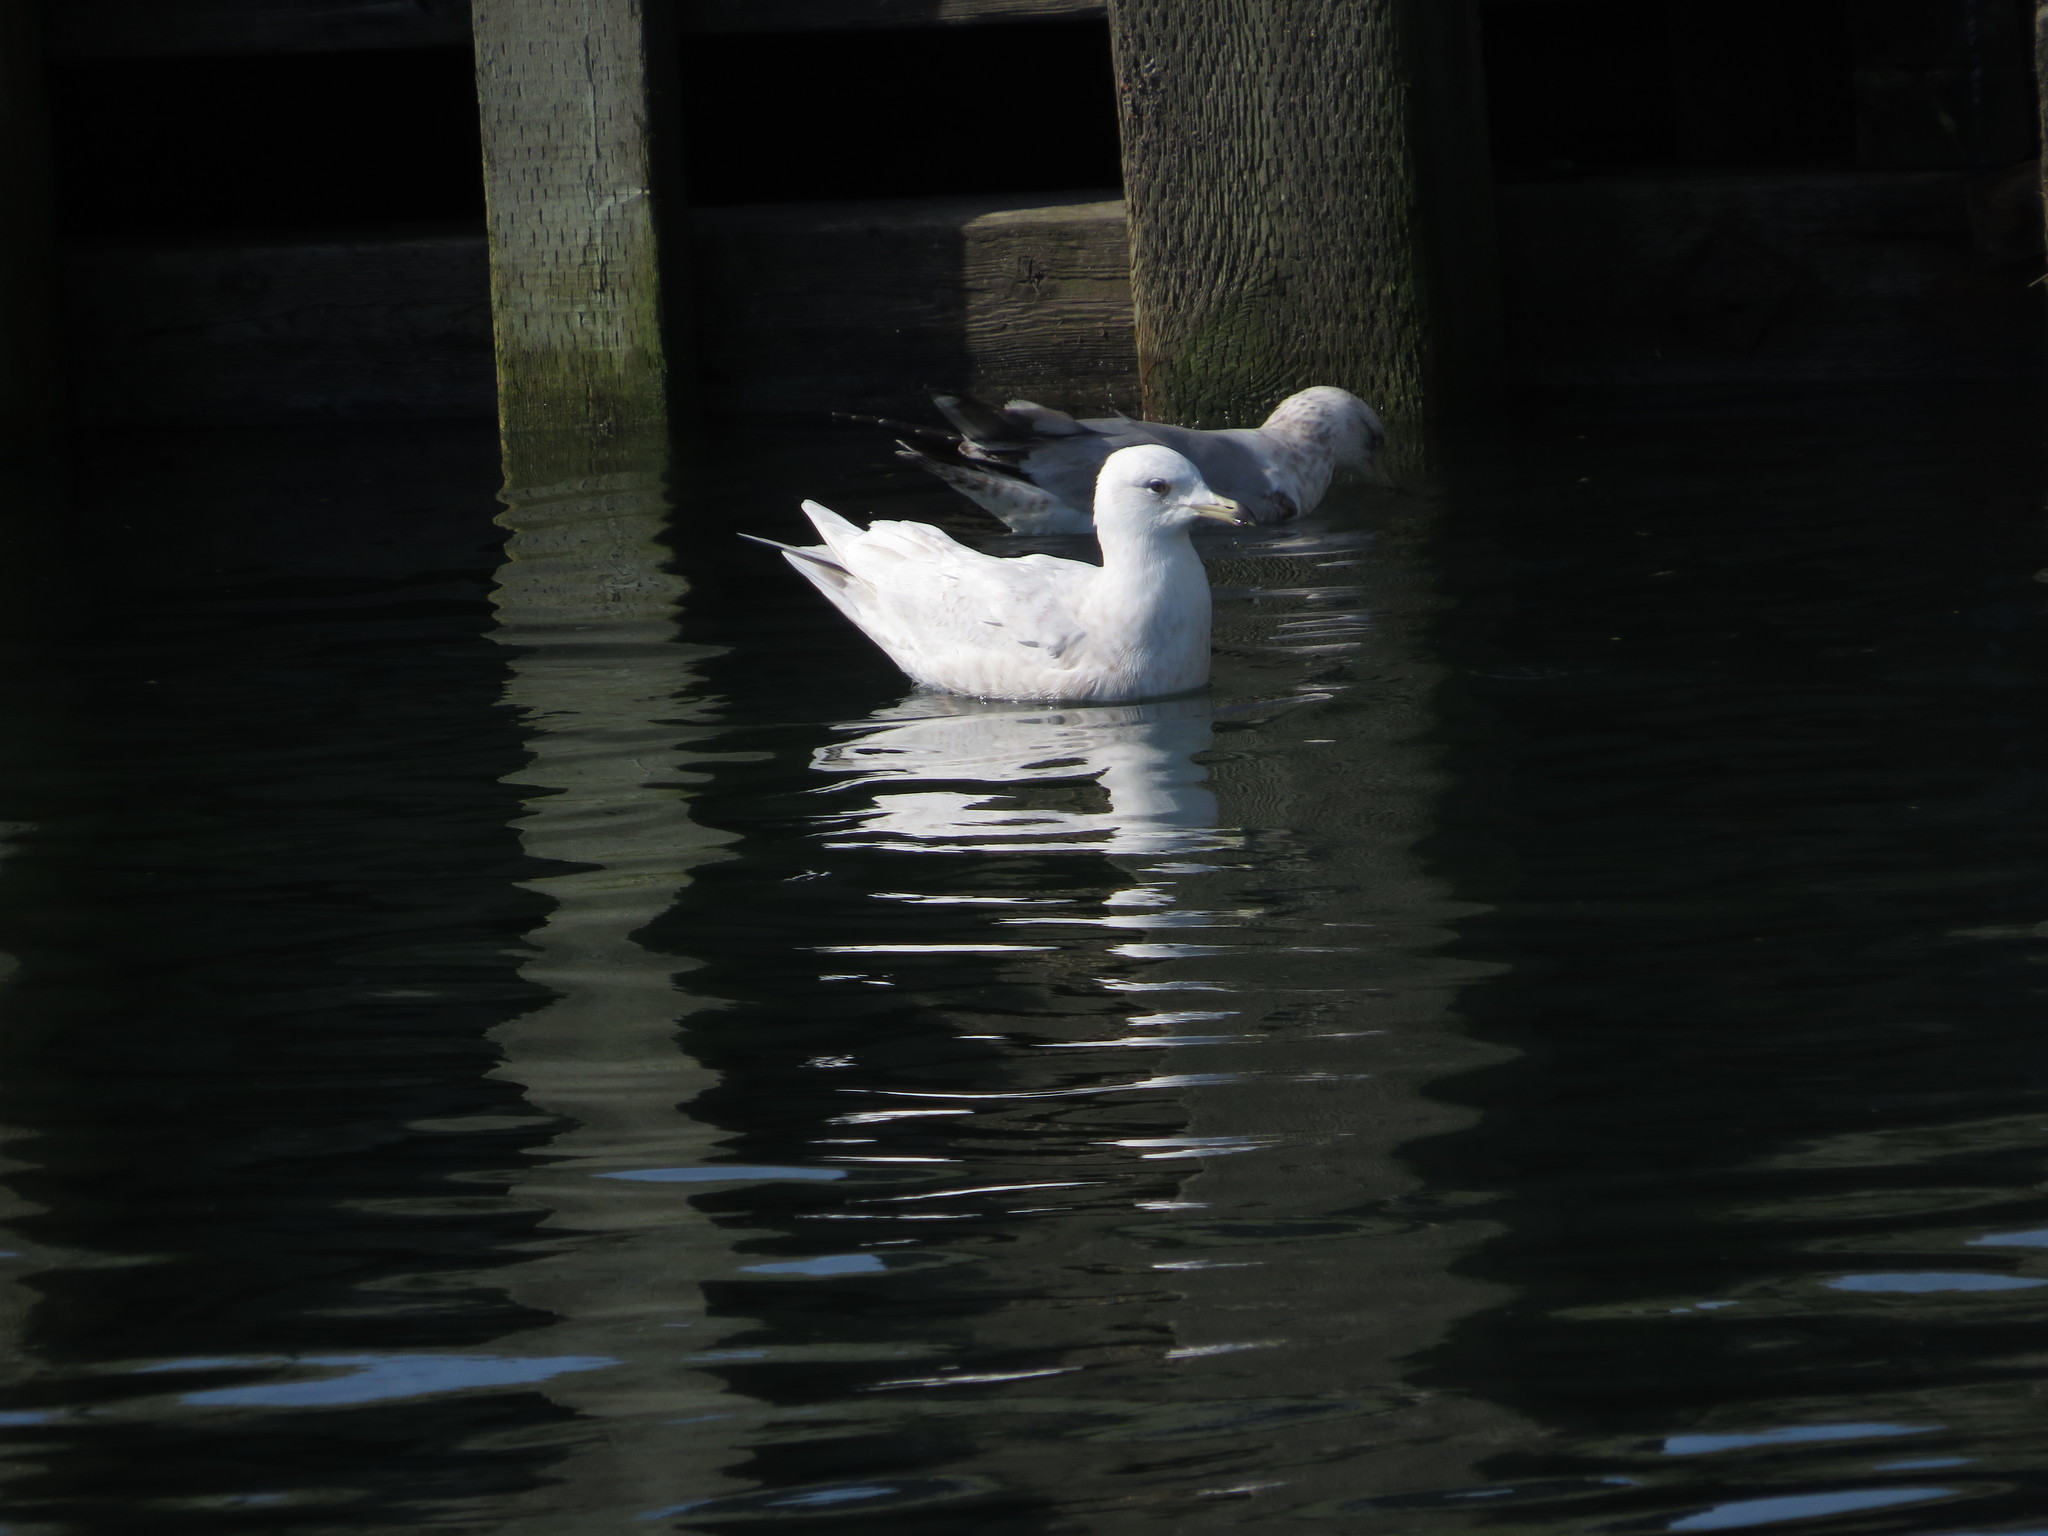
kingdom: Animalia
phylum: Chordata
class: Aves
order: Charadriiformes
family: Laridae
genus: Larus
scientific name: Larus glaucoides
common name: Iceland gull
